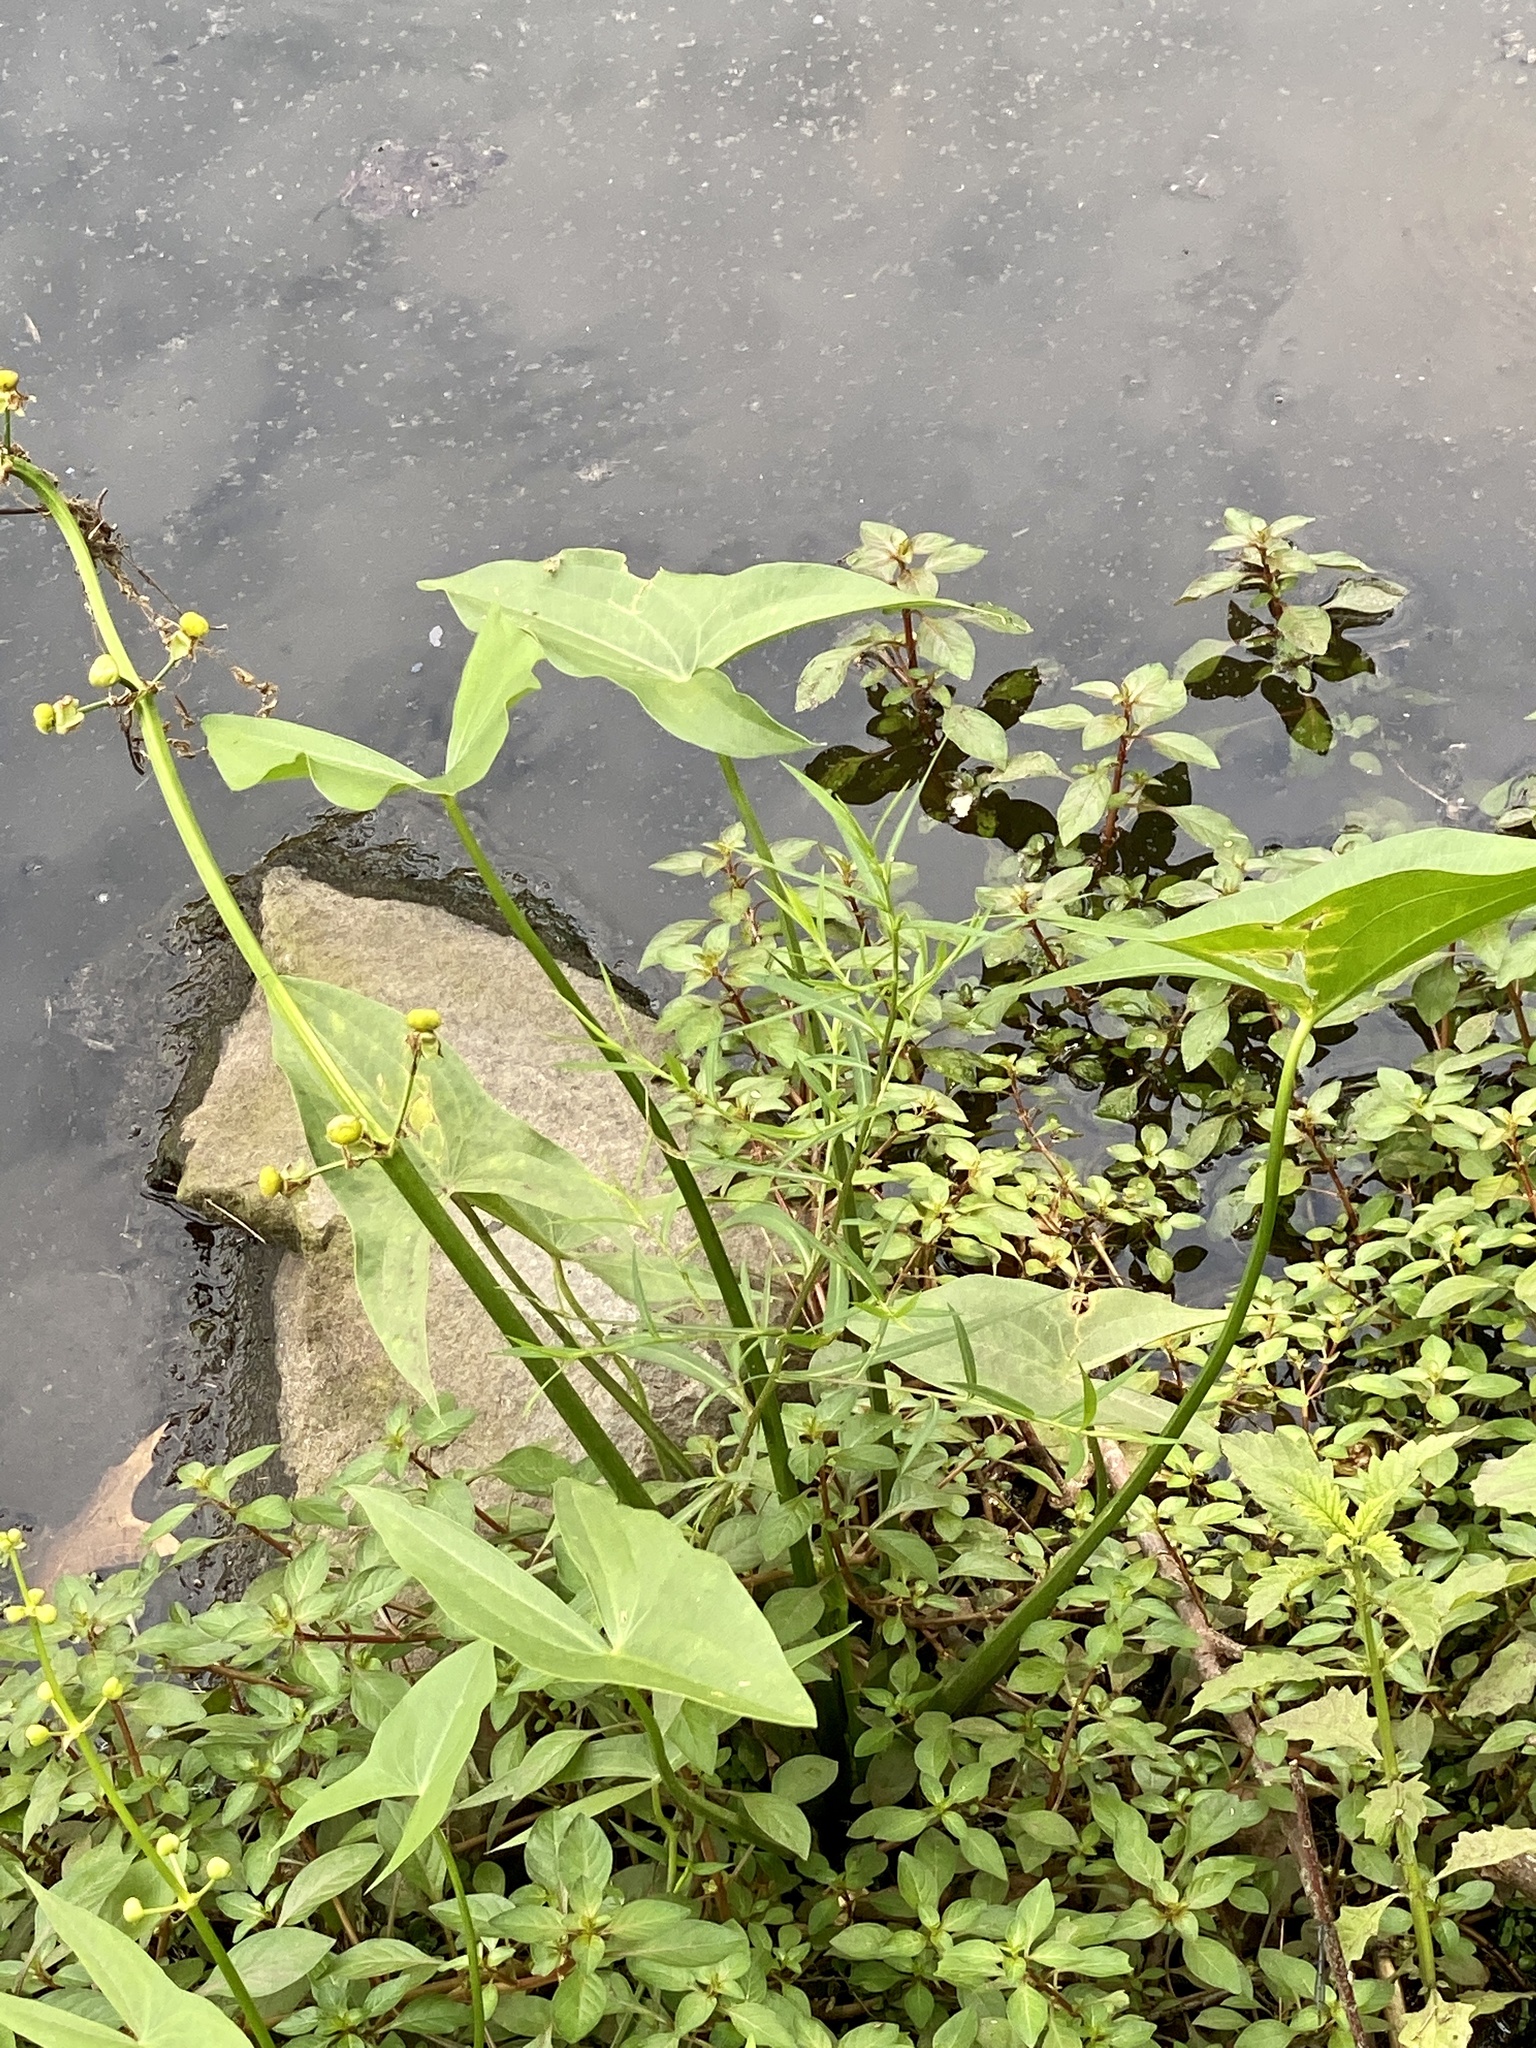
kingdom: Plantae
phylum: Tracheophyta
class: Liliopsida
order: Alismatales
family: Alismataceae
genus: Sagittaria
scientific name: Sagittaria latifolia
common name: Duck-potato
